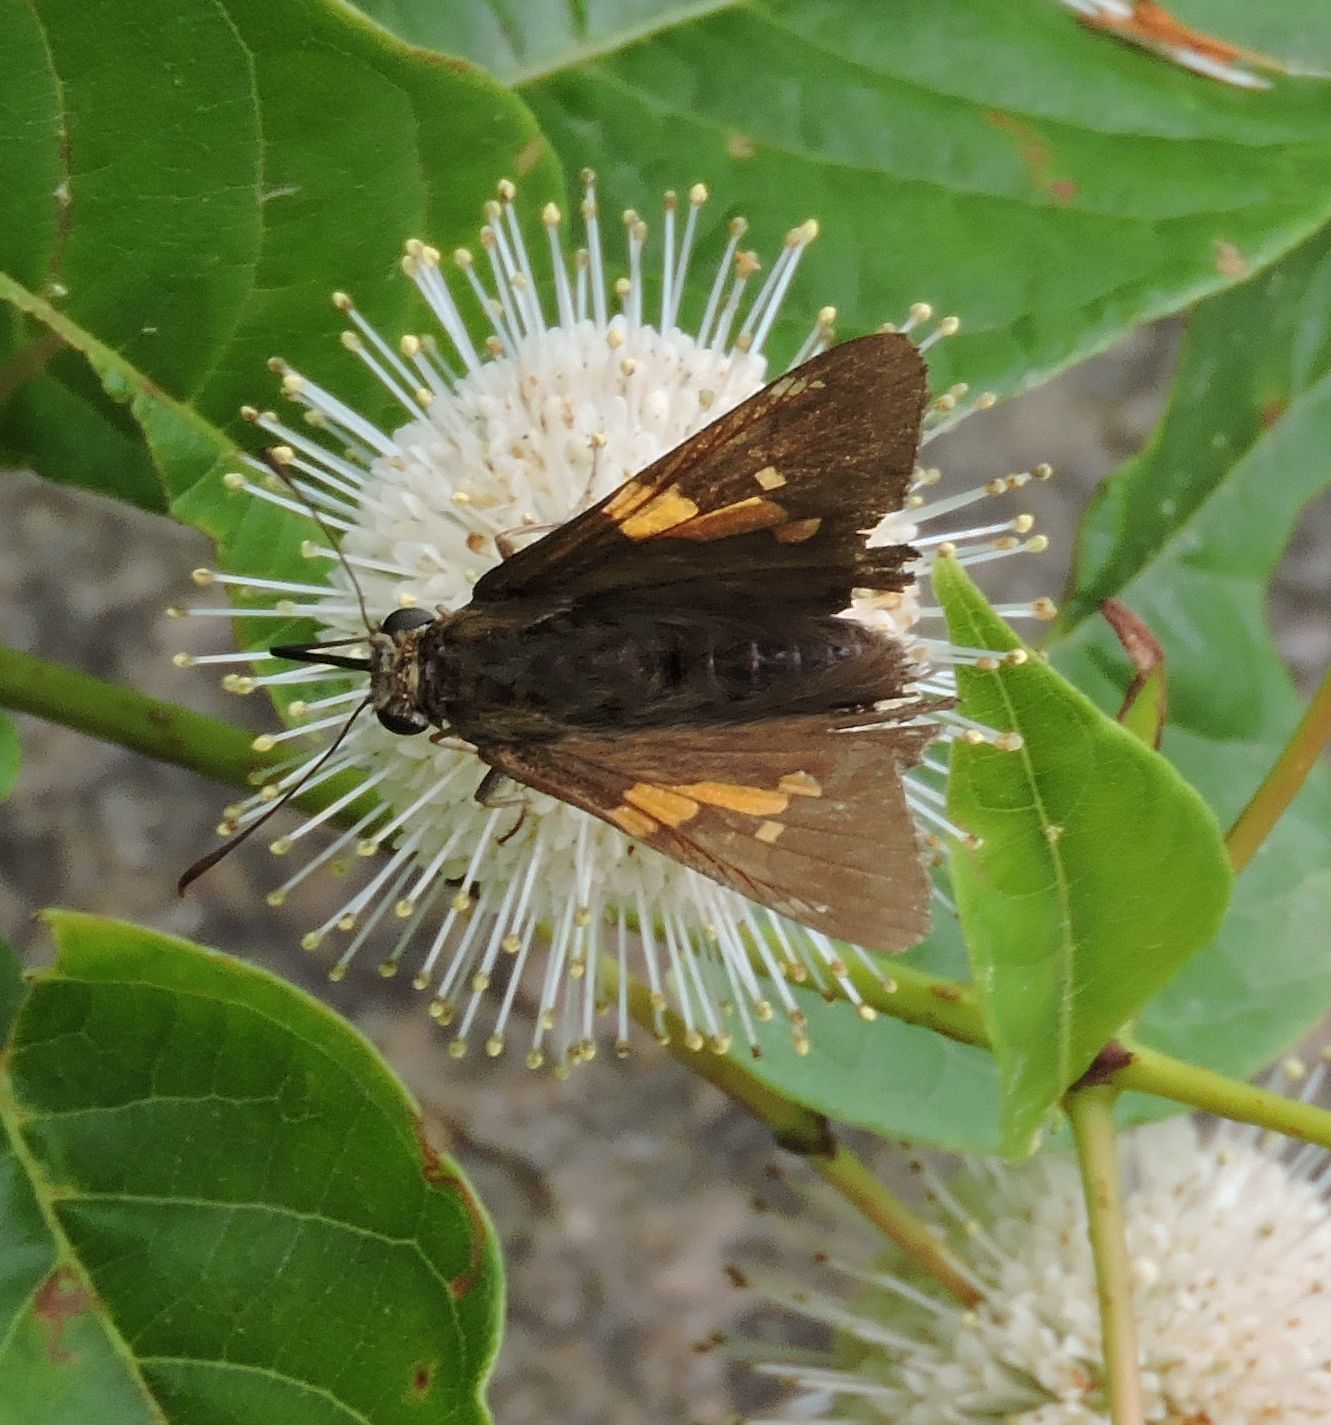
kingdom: Animalia
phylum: Arthropoda
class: Insecta
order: Lepidoptera
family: Hesperiidae
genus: Epargyreus
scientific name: Epargyreus clarus
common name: Silver-spotted skipper
